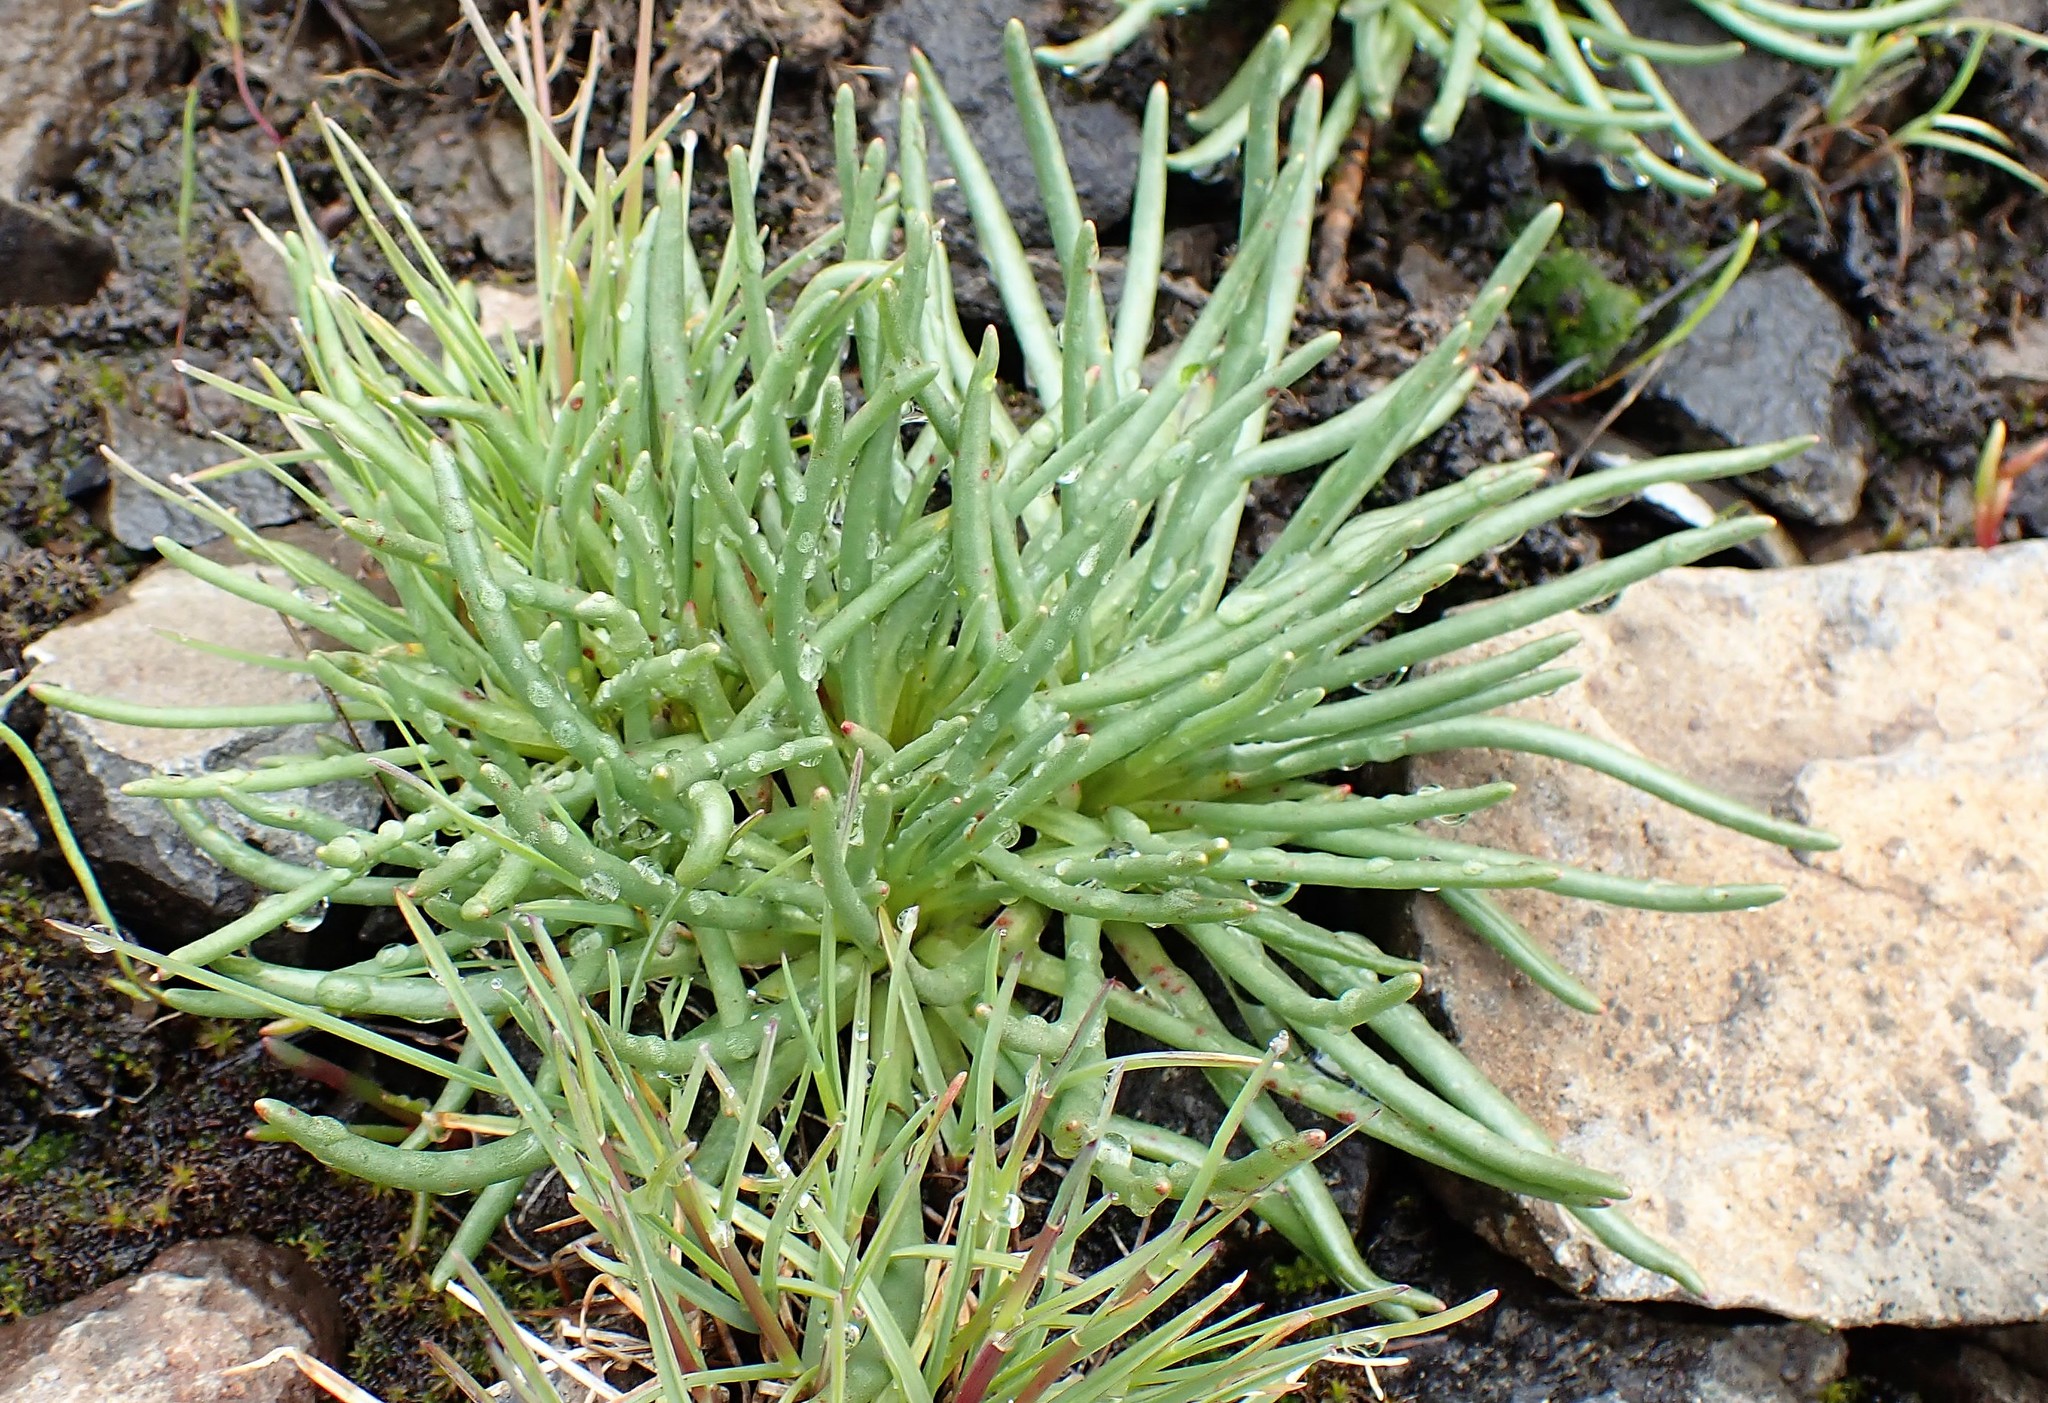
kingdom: Plantae
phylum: Tracheophyta
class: Magnoliopsida
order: Caryophyllales
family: Montiaceae
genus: Lewisia
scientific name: Lewisia rediviva
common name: Bitter-root
